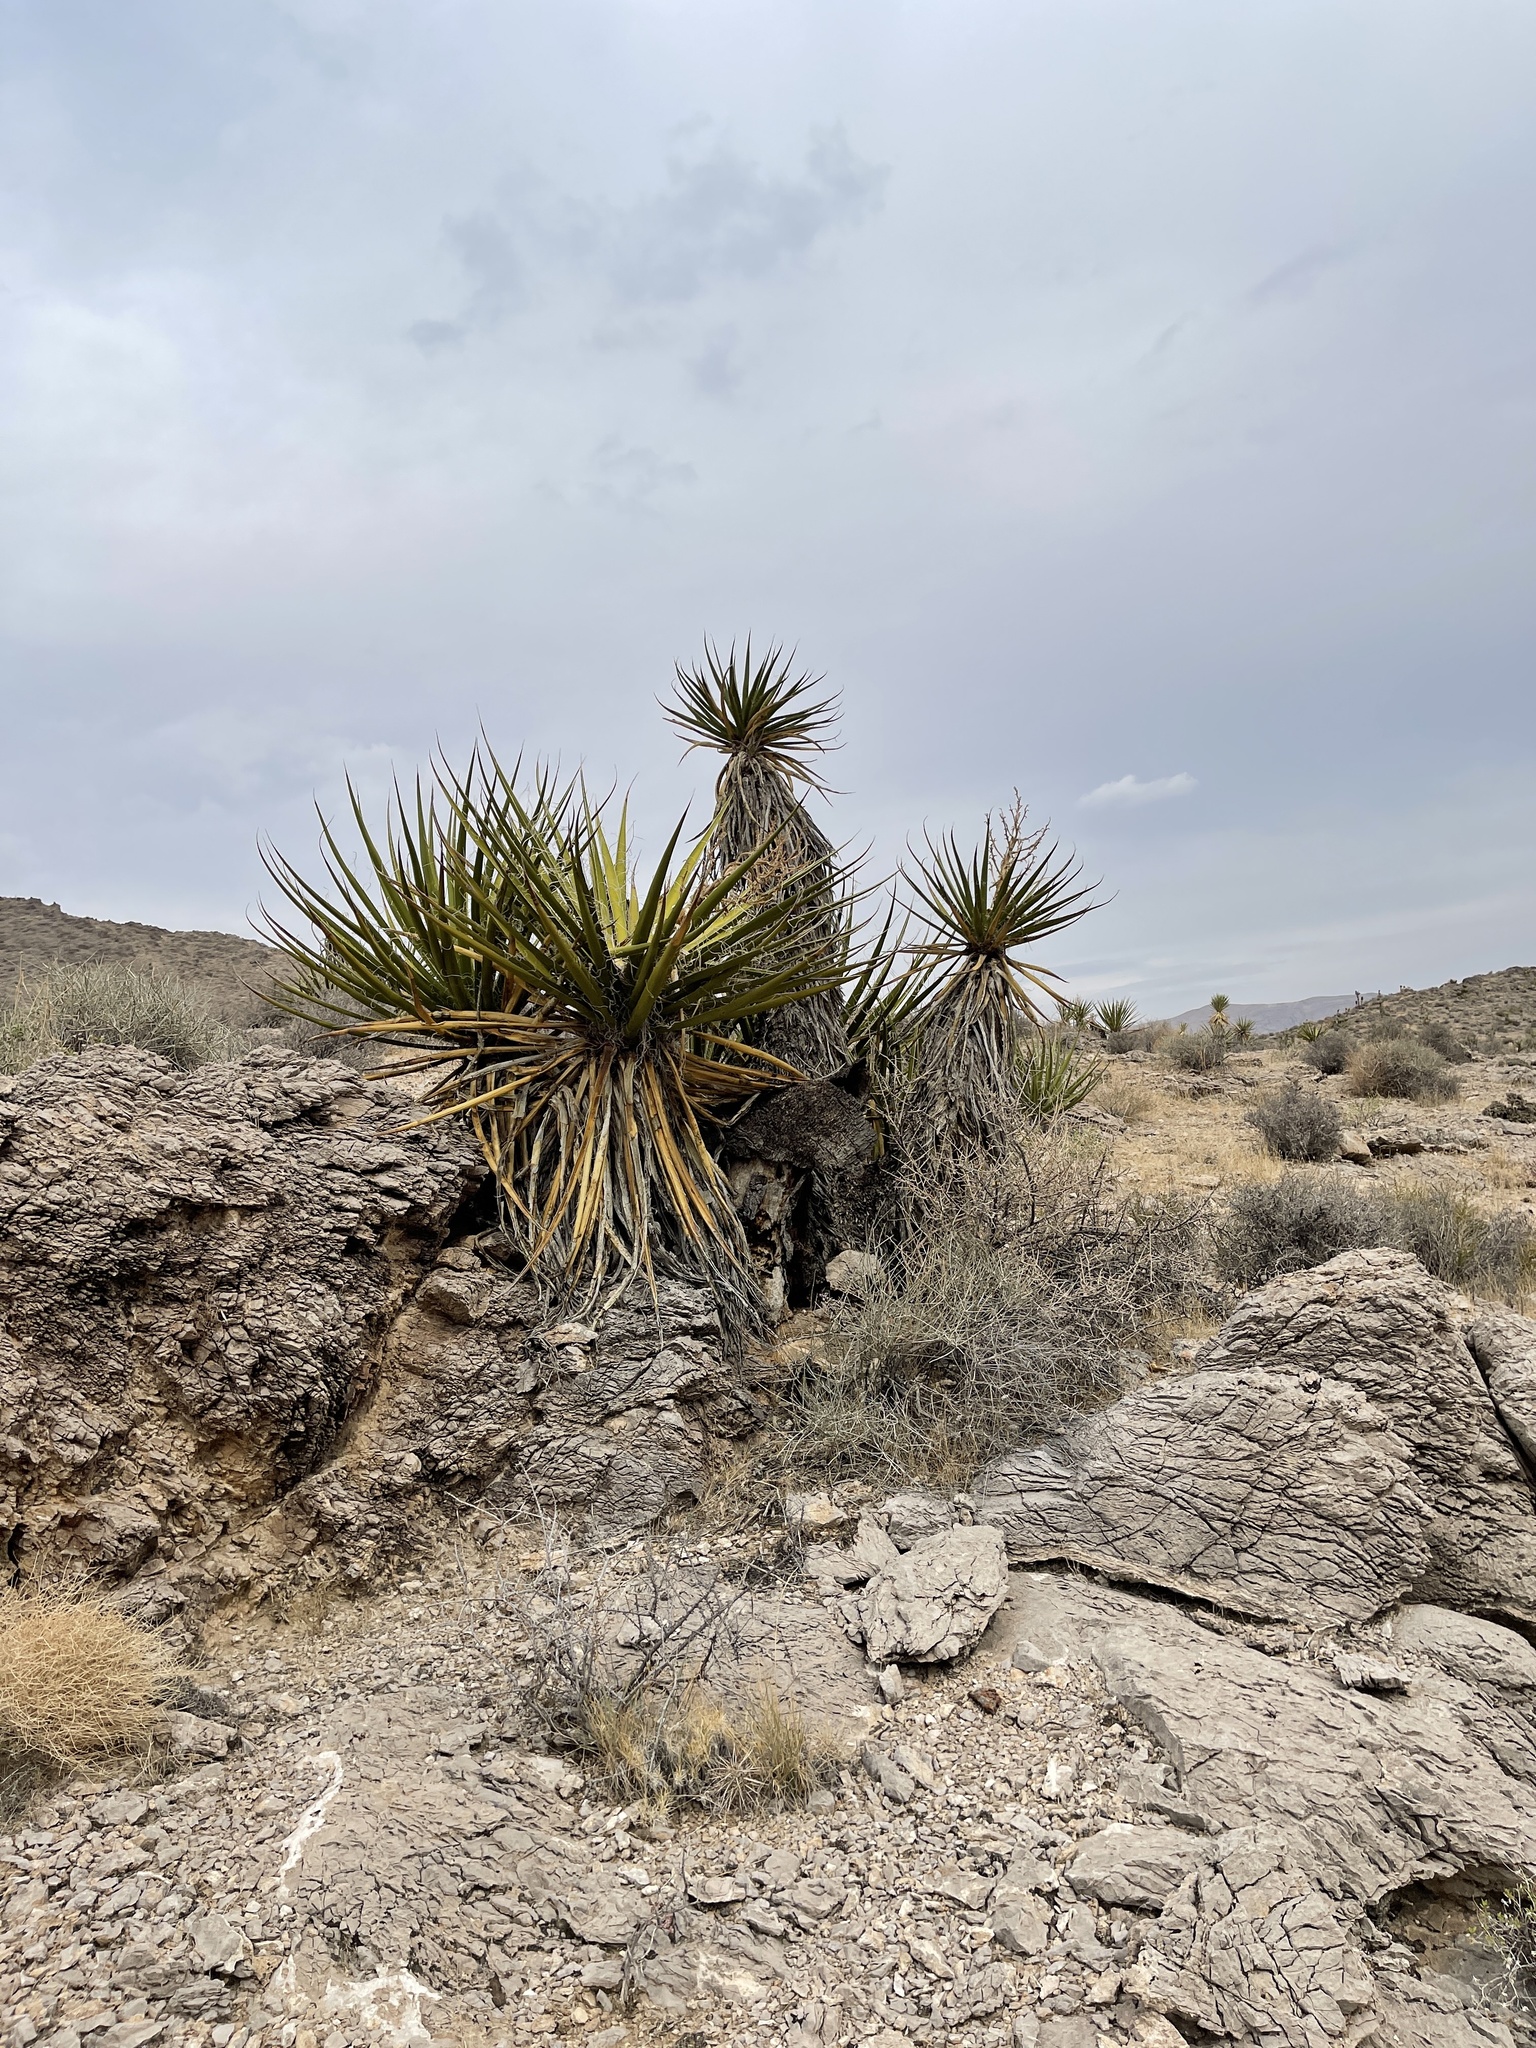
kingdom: Plantae
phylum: Tracheophyta
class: Liliopsida
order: Asparagales
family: Asparagaceae
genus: Yucca
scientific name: Yucca schidigera
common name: Mojave yucca
